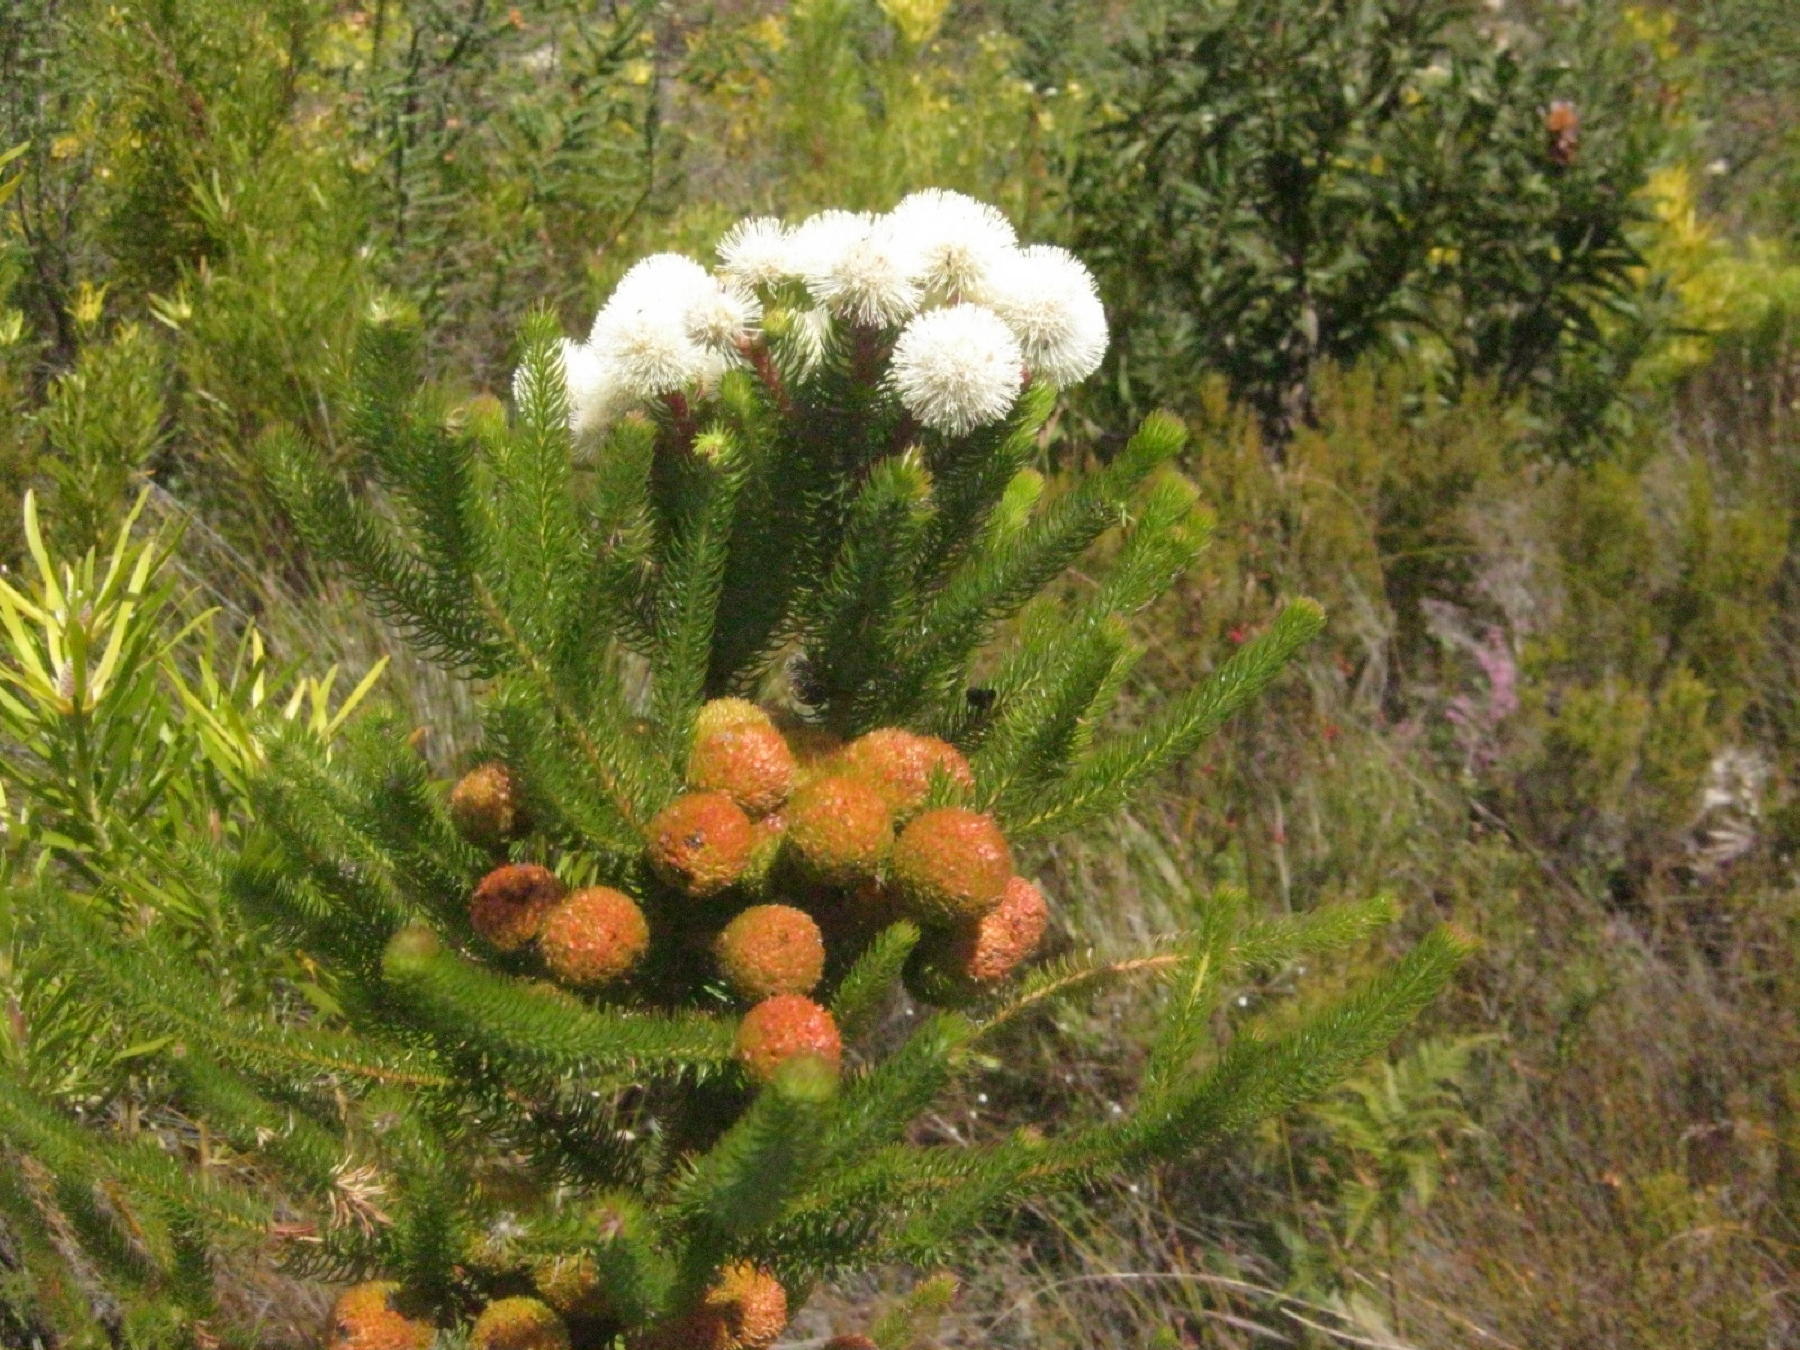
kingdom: Plantae
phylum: Tracheophyta
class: Magnoliopsida
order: Bruniales
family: Bruniaceae
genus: Berzelia
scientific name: Berzelia abrotanoides
